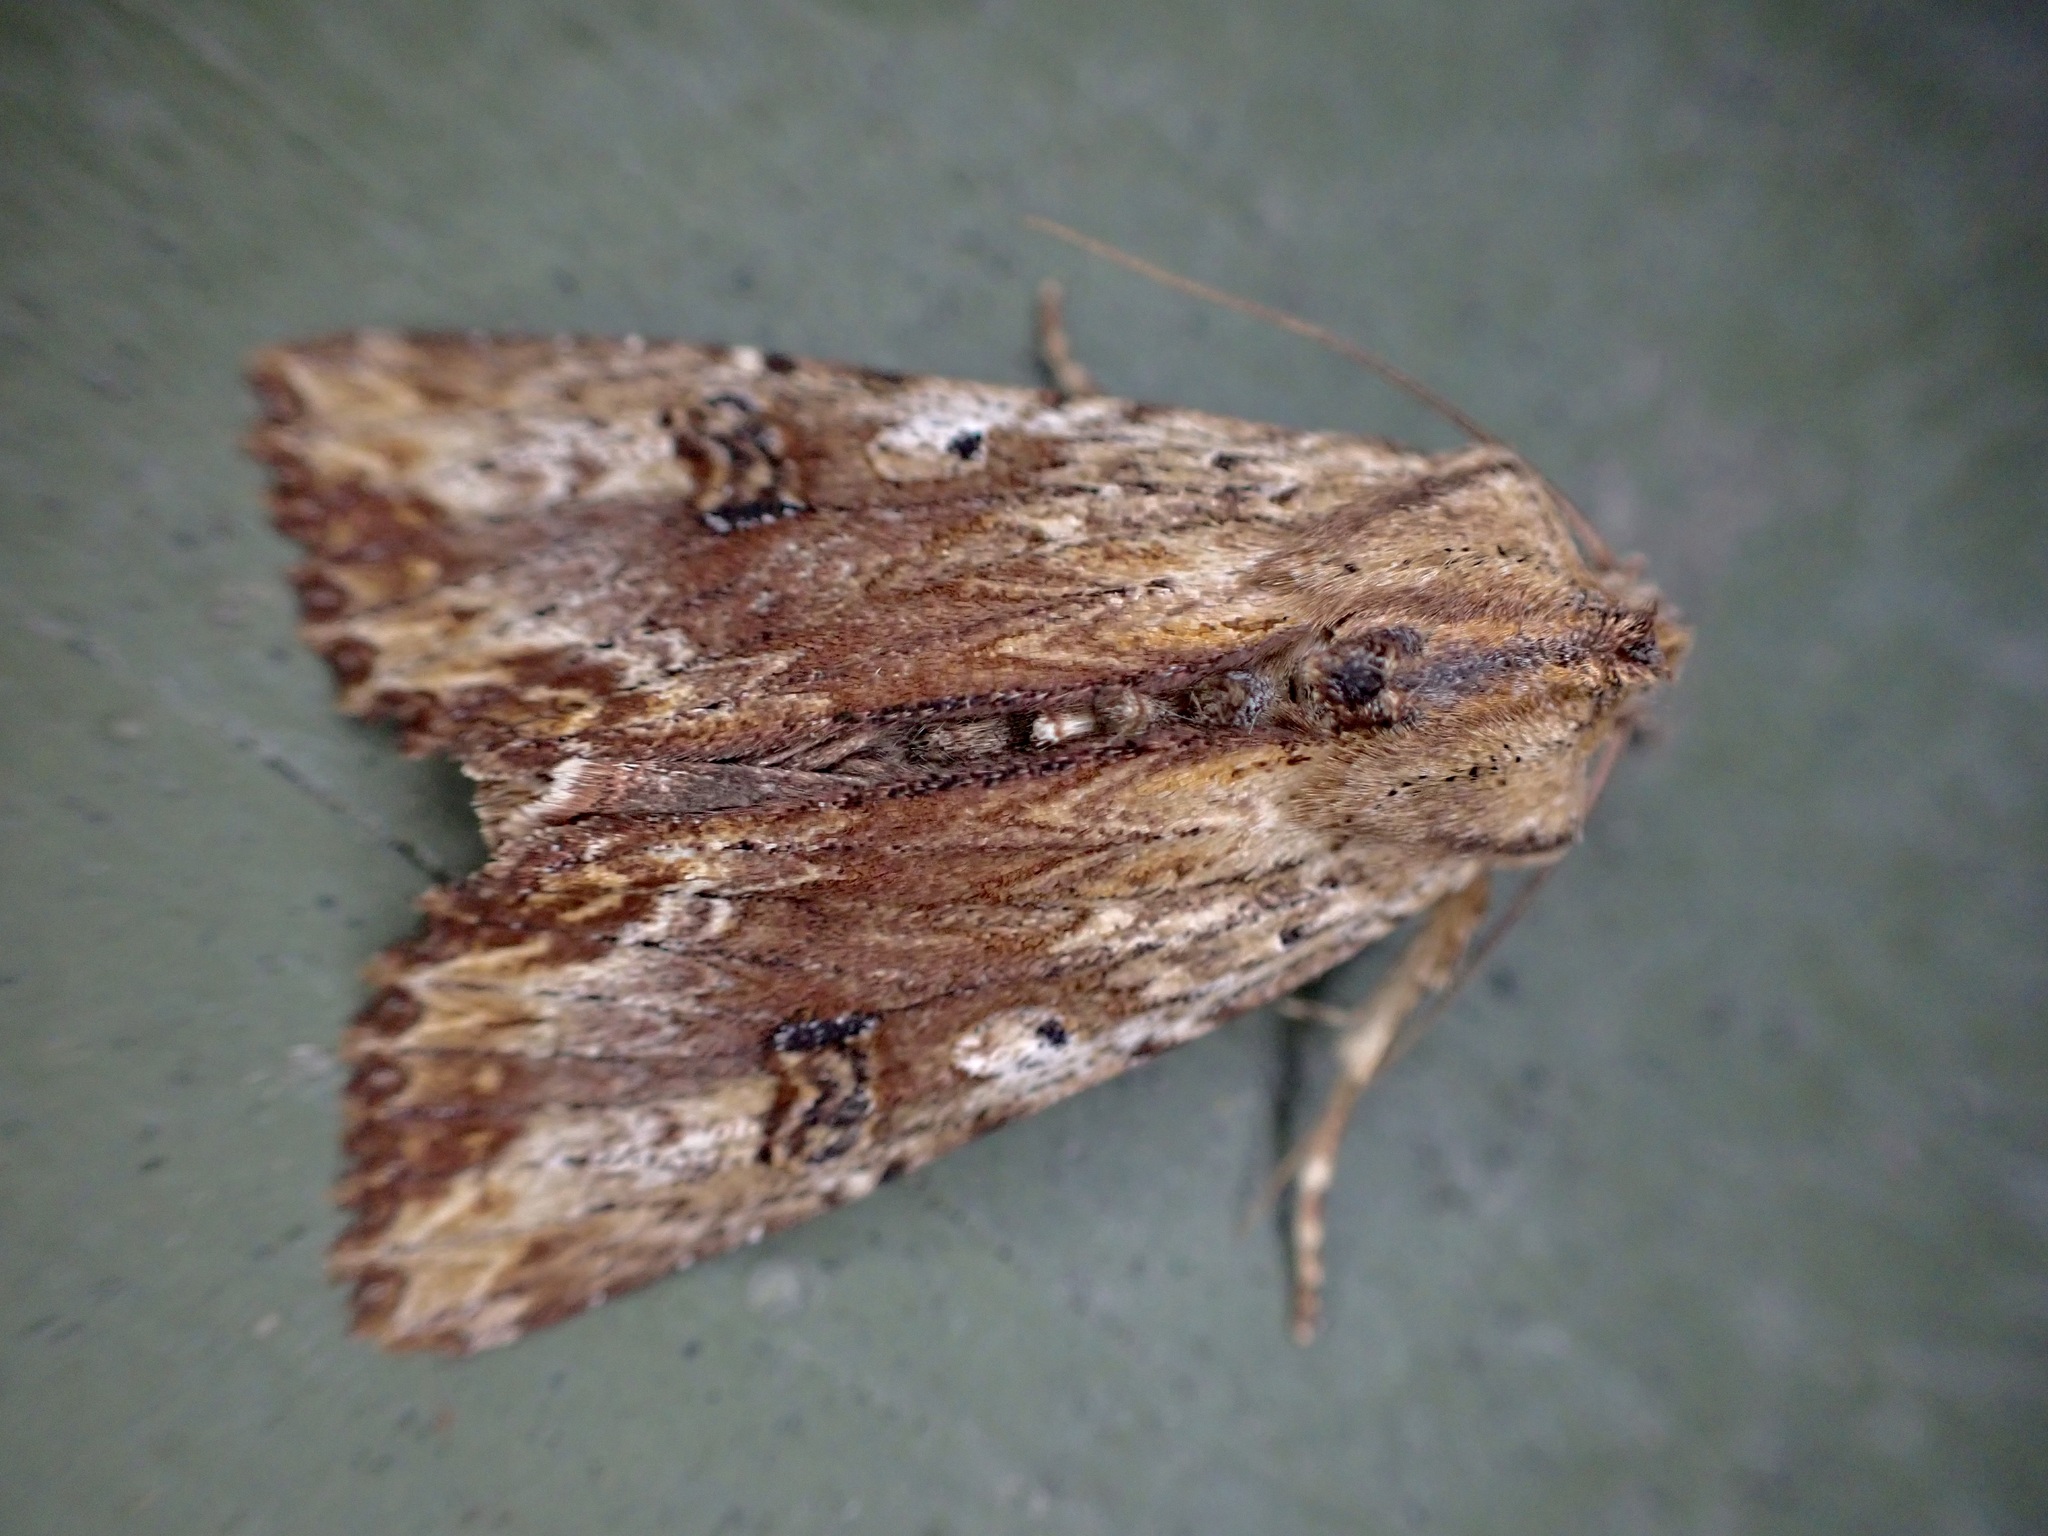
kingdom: Animalia
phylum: Arthropoda
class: Insecta
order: Lepidoptera
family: Noctuidae
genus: Ichneutica
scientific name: Ichneutica
